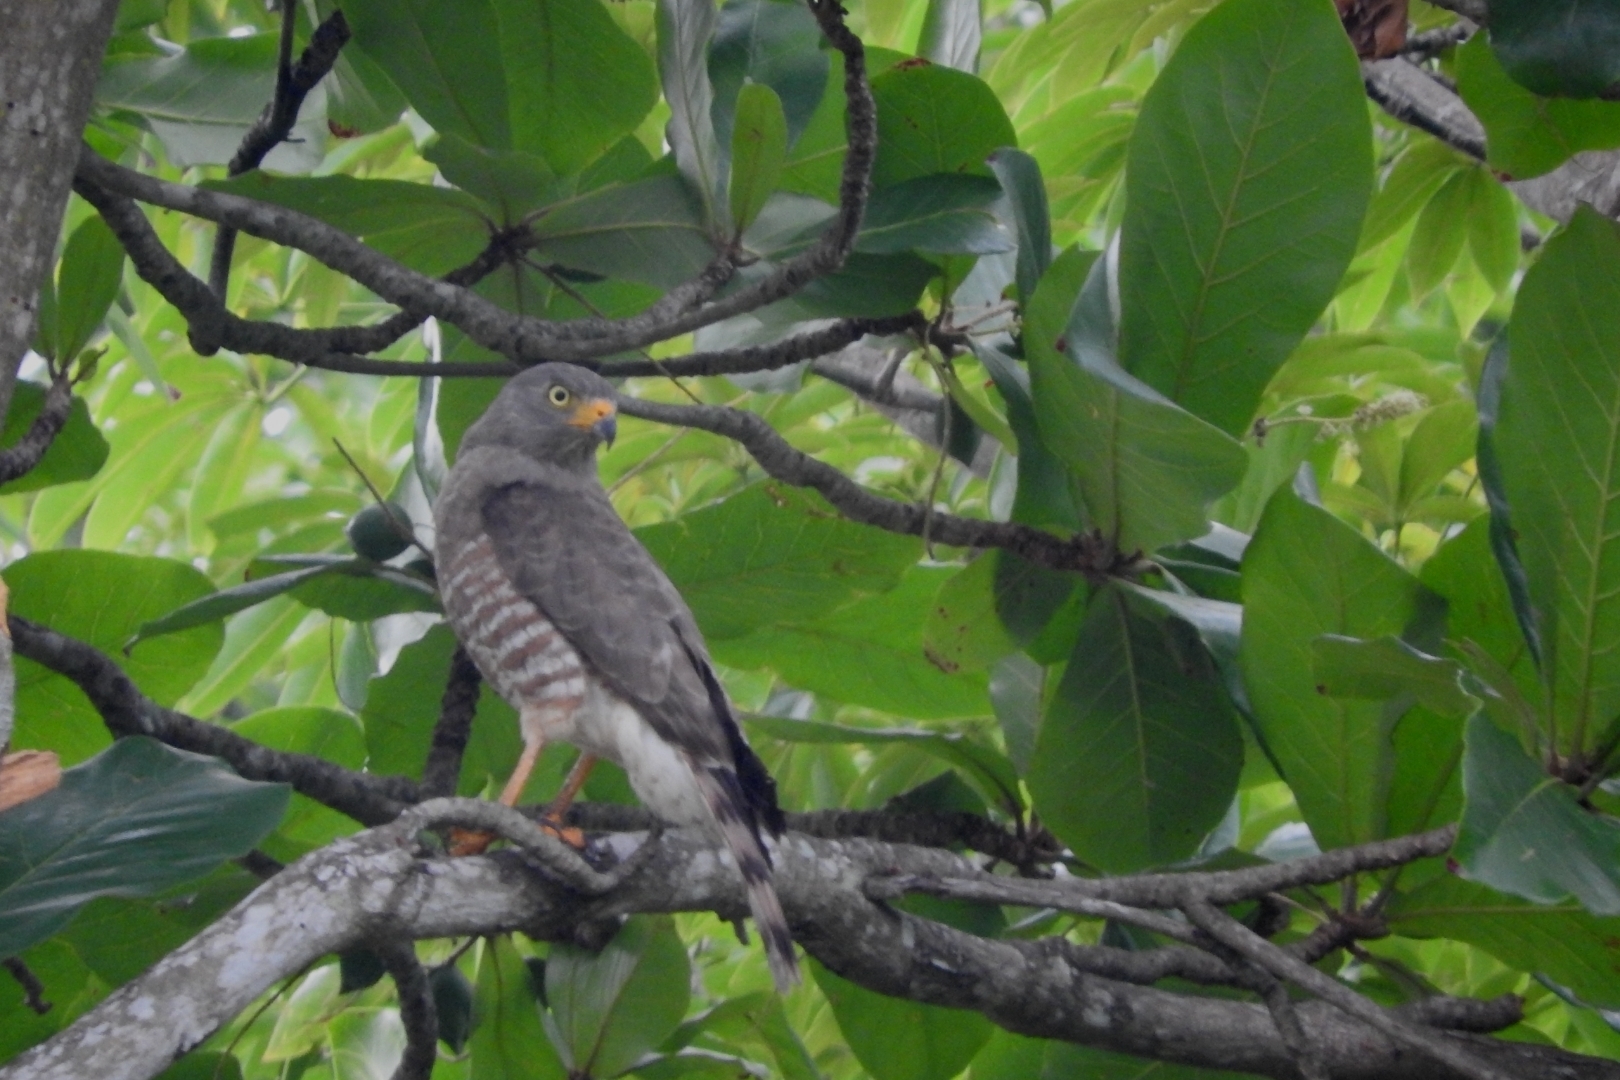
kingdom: Animalia
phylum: Chordata
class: Aves
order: Accipitriformes
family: Accipitridae
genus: Rupornis
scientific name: Rupornis magnirostris
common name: Roadside hawk
